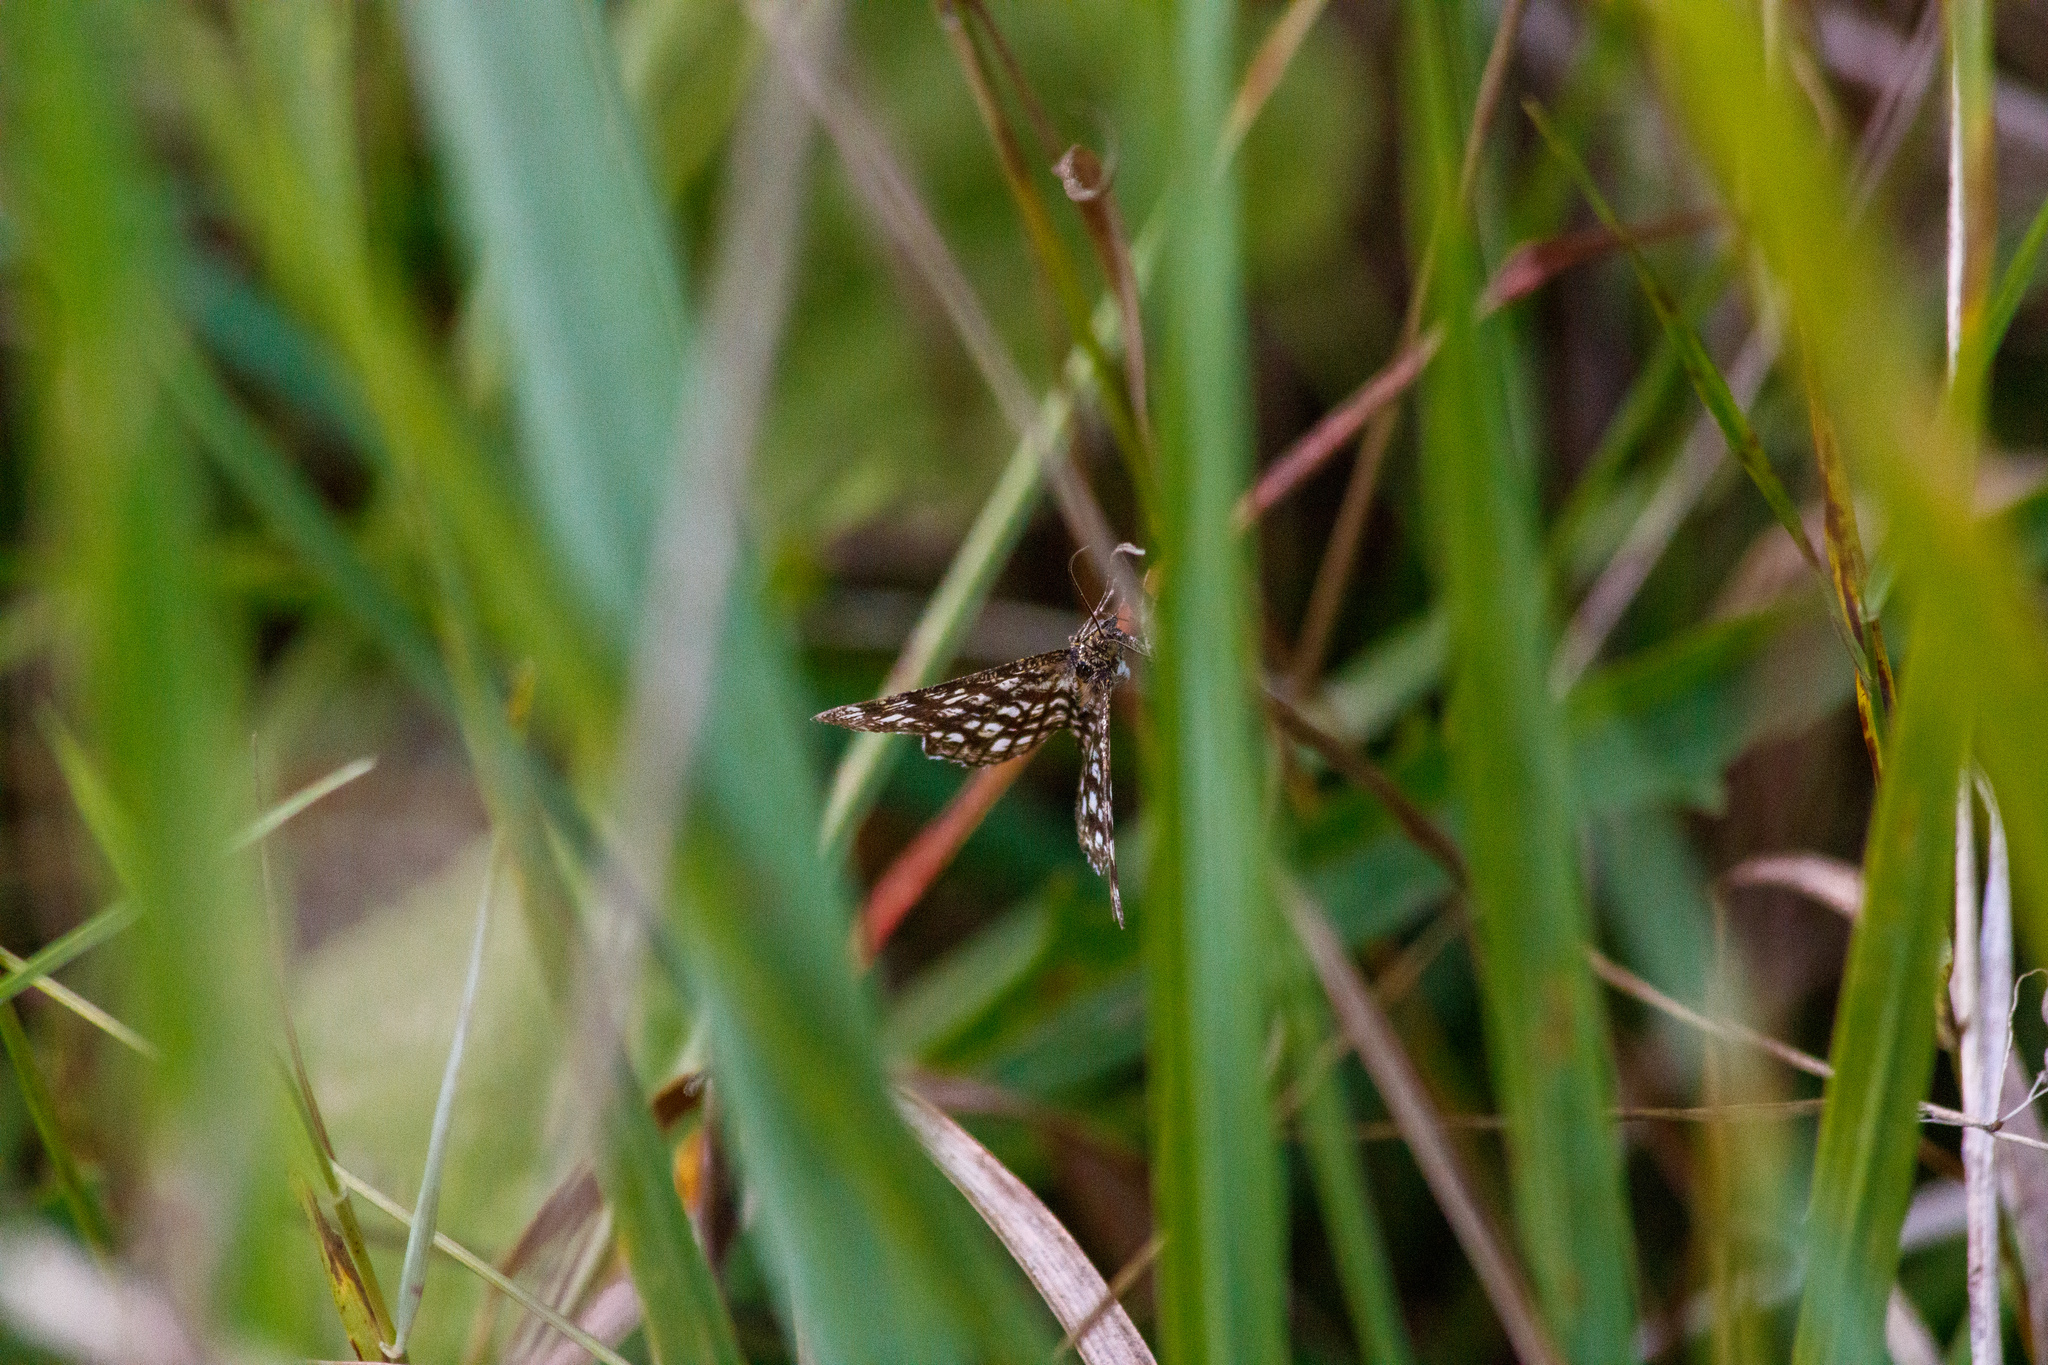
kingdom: Animalia
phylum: Arthropoda
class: Insecta
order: Lepidoptera
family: Geometridae
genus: Chiasmia
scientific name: Chiasmia clathrata
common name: Latticed heath
